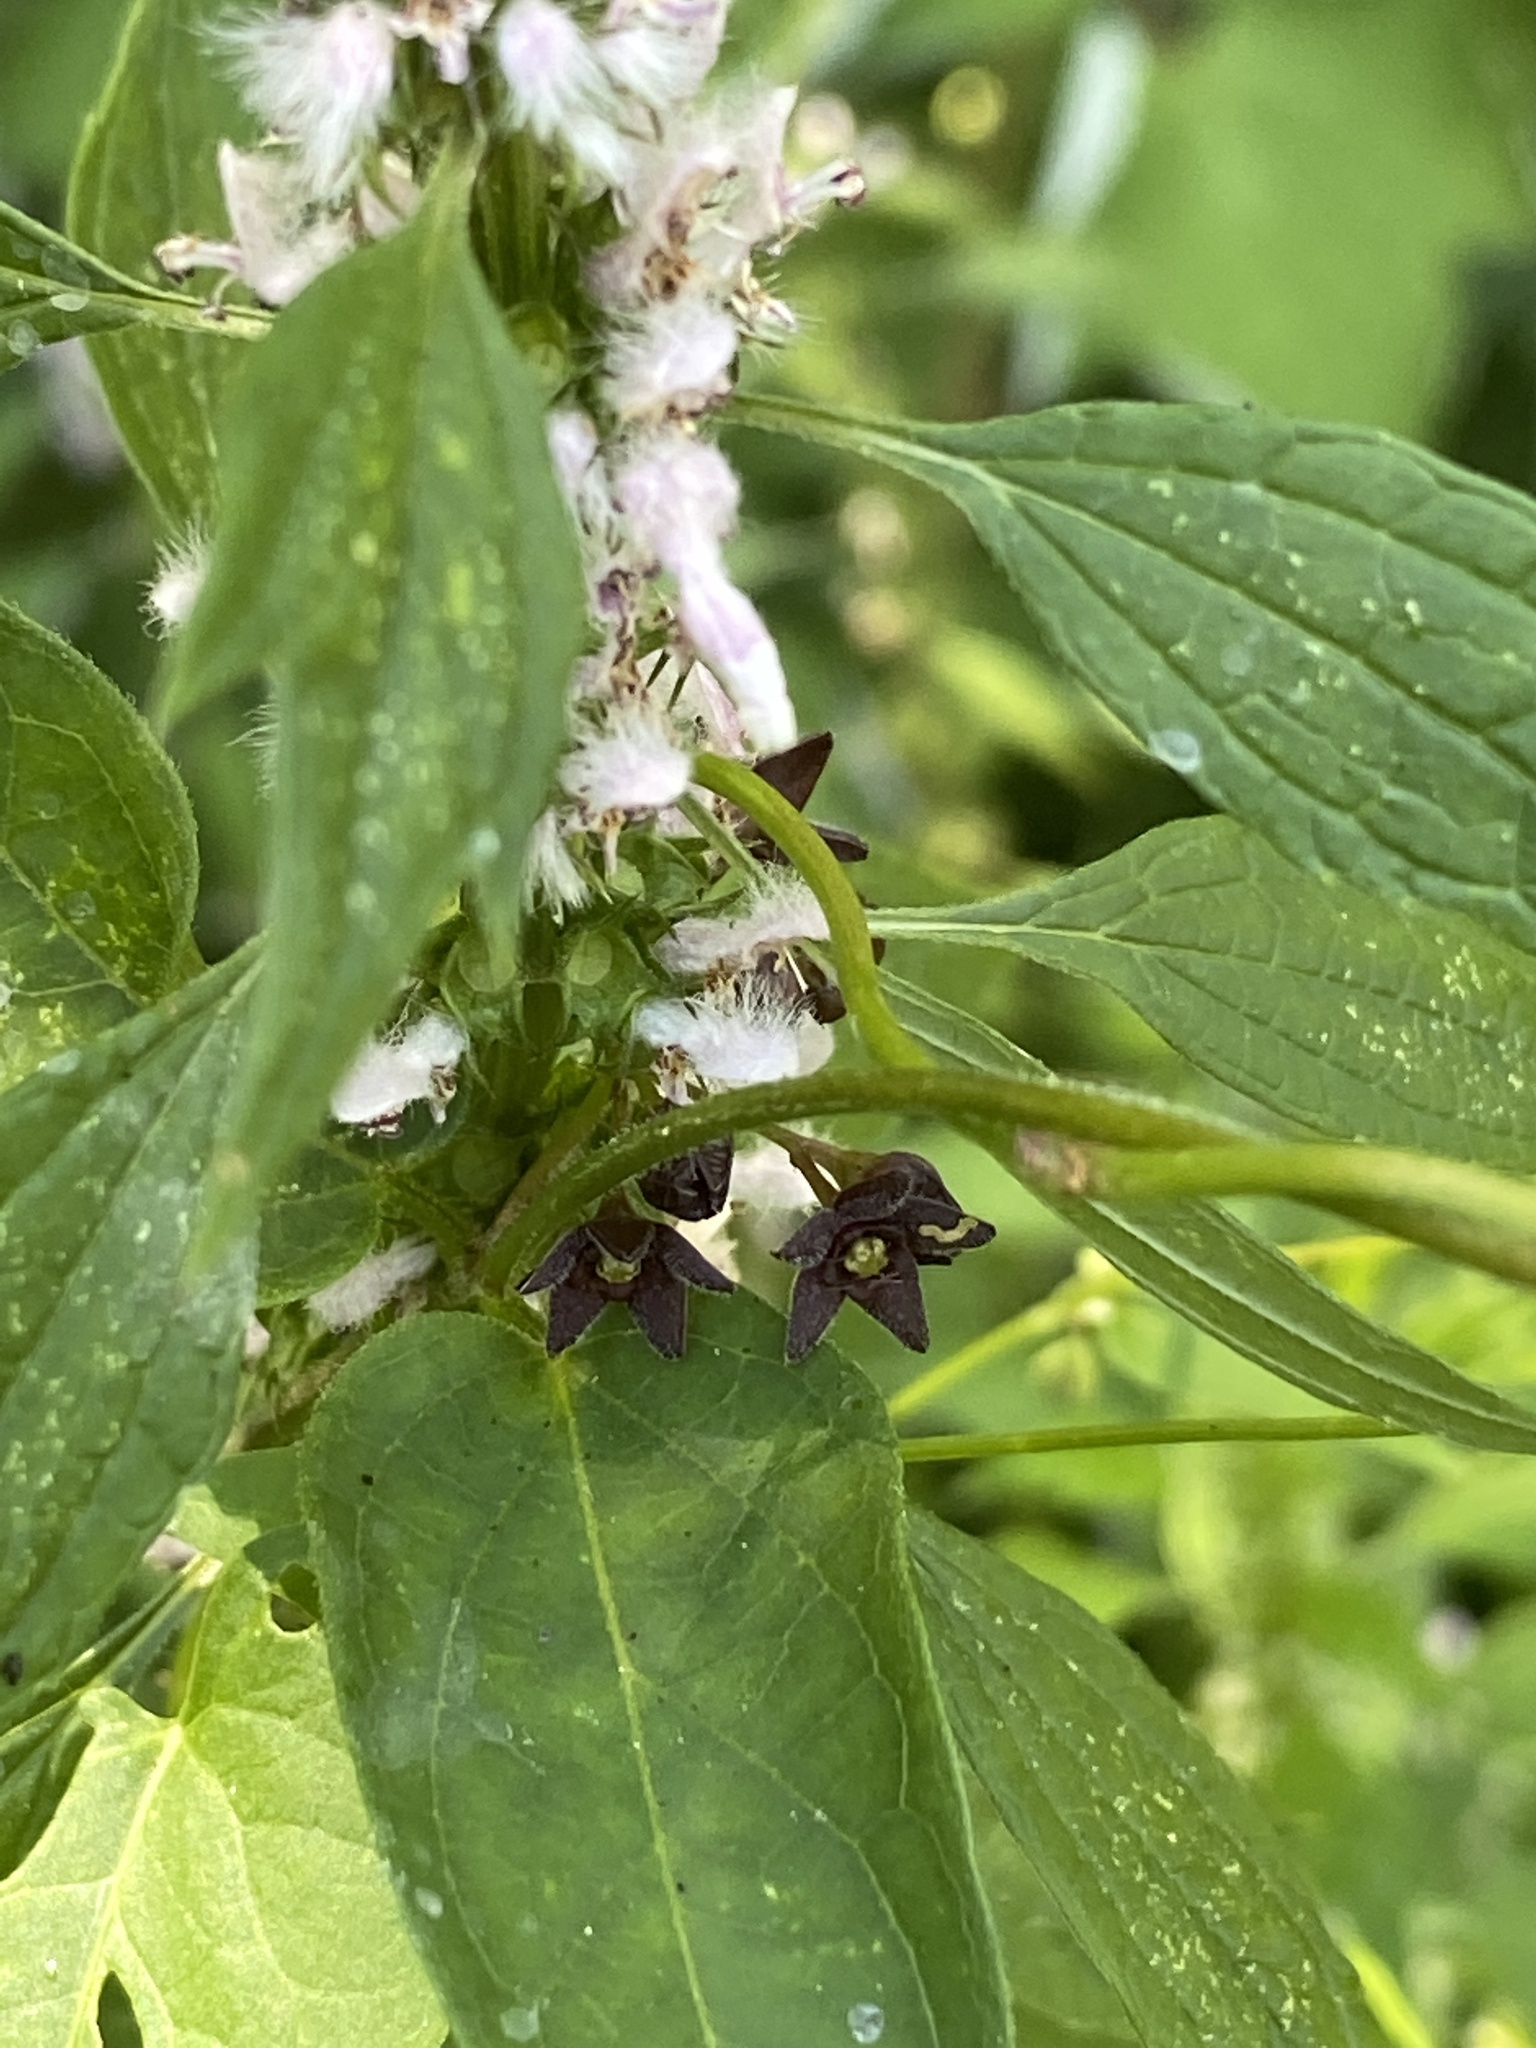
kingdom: Plantae
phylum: Tracheophyta
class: Magnoliopsida
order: Gentianales
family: Apocynaceae
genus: Vincetoxicum
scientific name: Vincetoxicum nigrum
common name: Black swallow-wort
